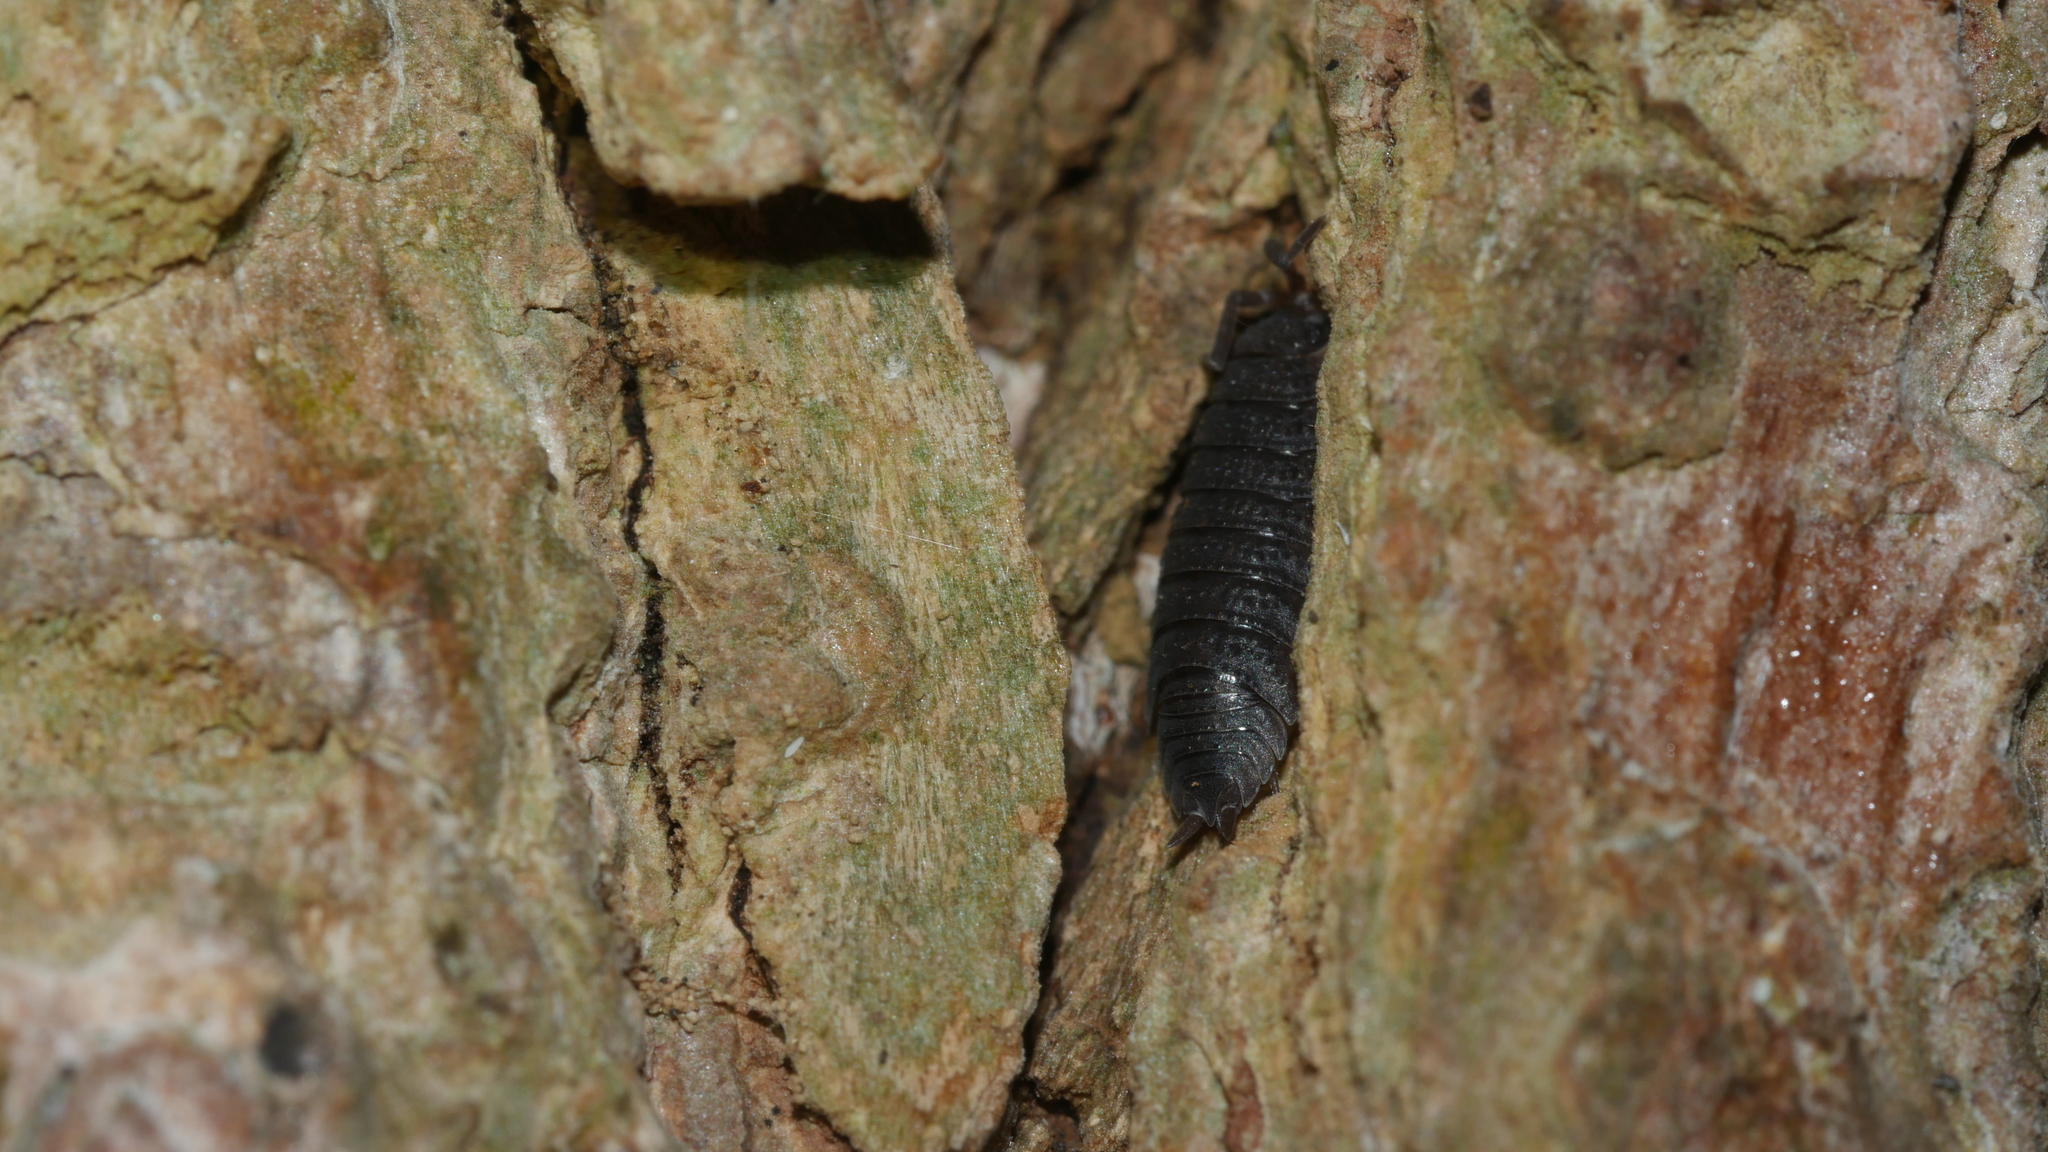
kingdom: Animalia
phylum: Arthropoda
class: Malacostraca
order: Isopoda
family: Porcellionidae
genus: Porcellio
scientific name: Porcellio scaber
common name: Common rough woodlouse
